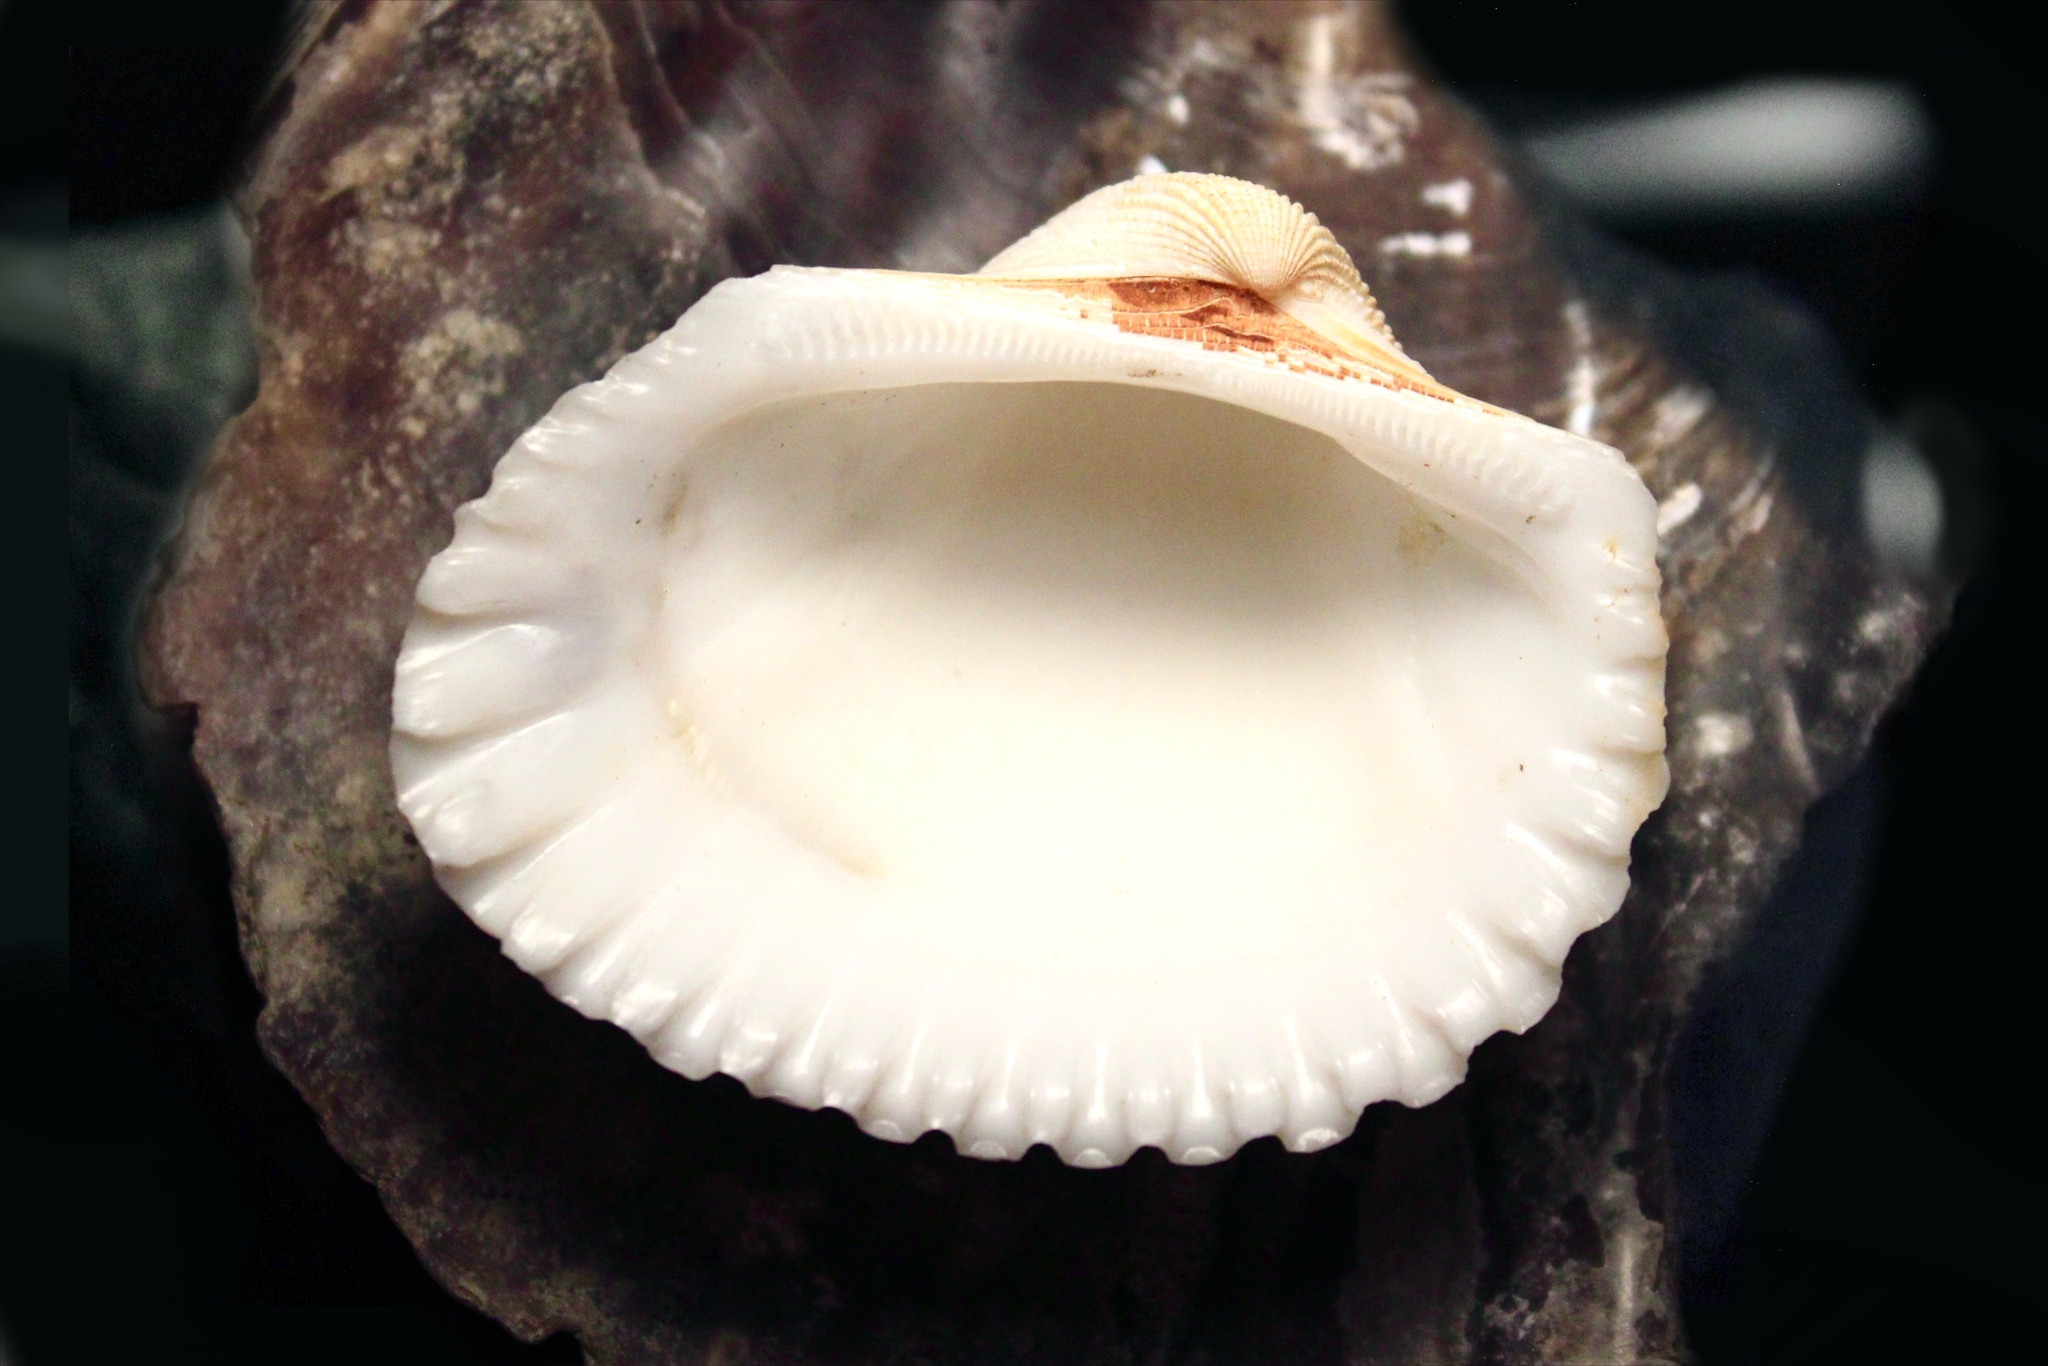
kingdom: Animalia
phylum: Mollusca
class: Bivalvia
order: Arcida
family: Arcidae
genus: Anadara
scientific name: Anadara brasiliana
